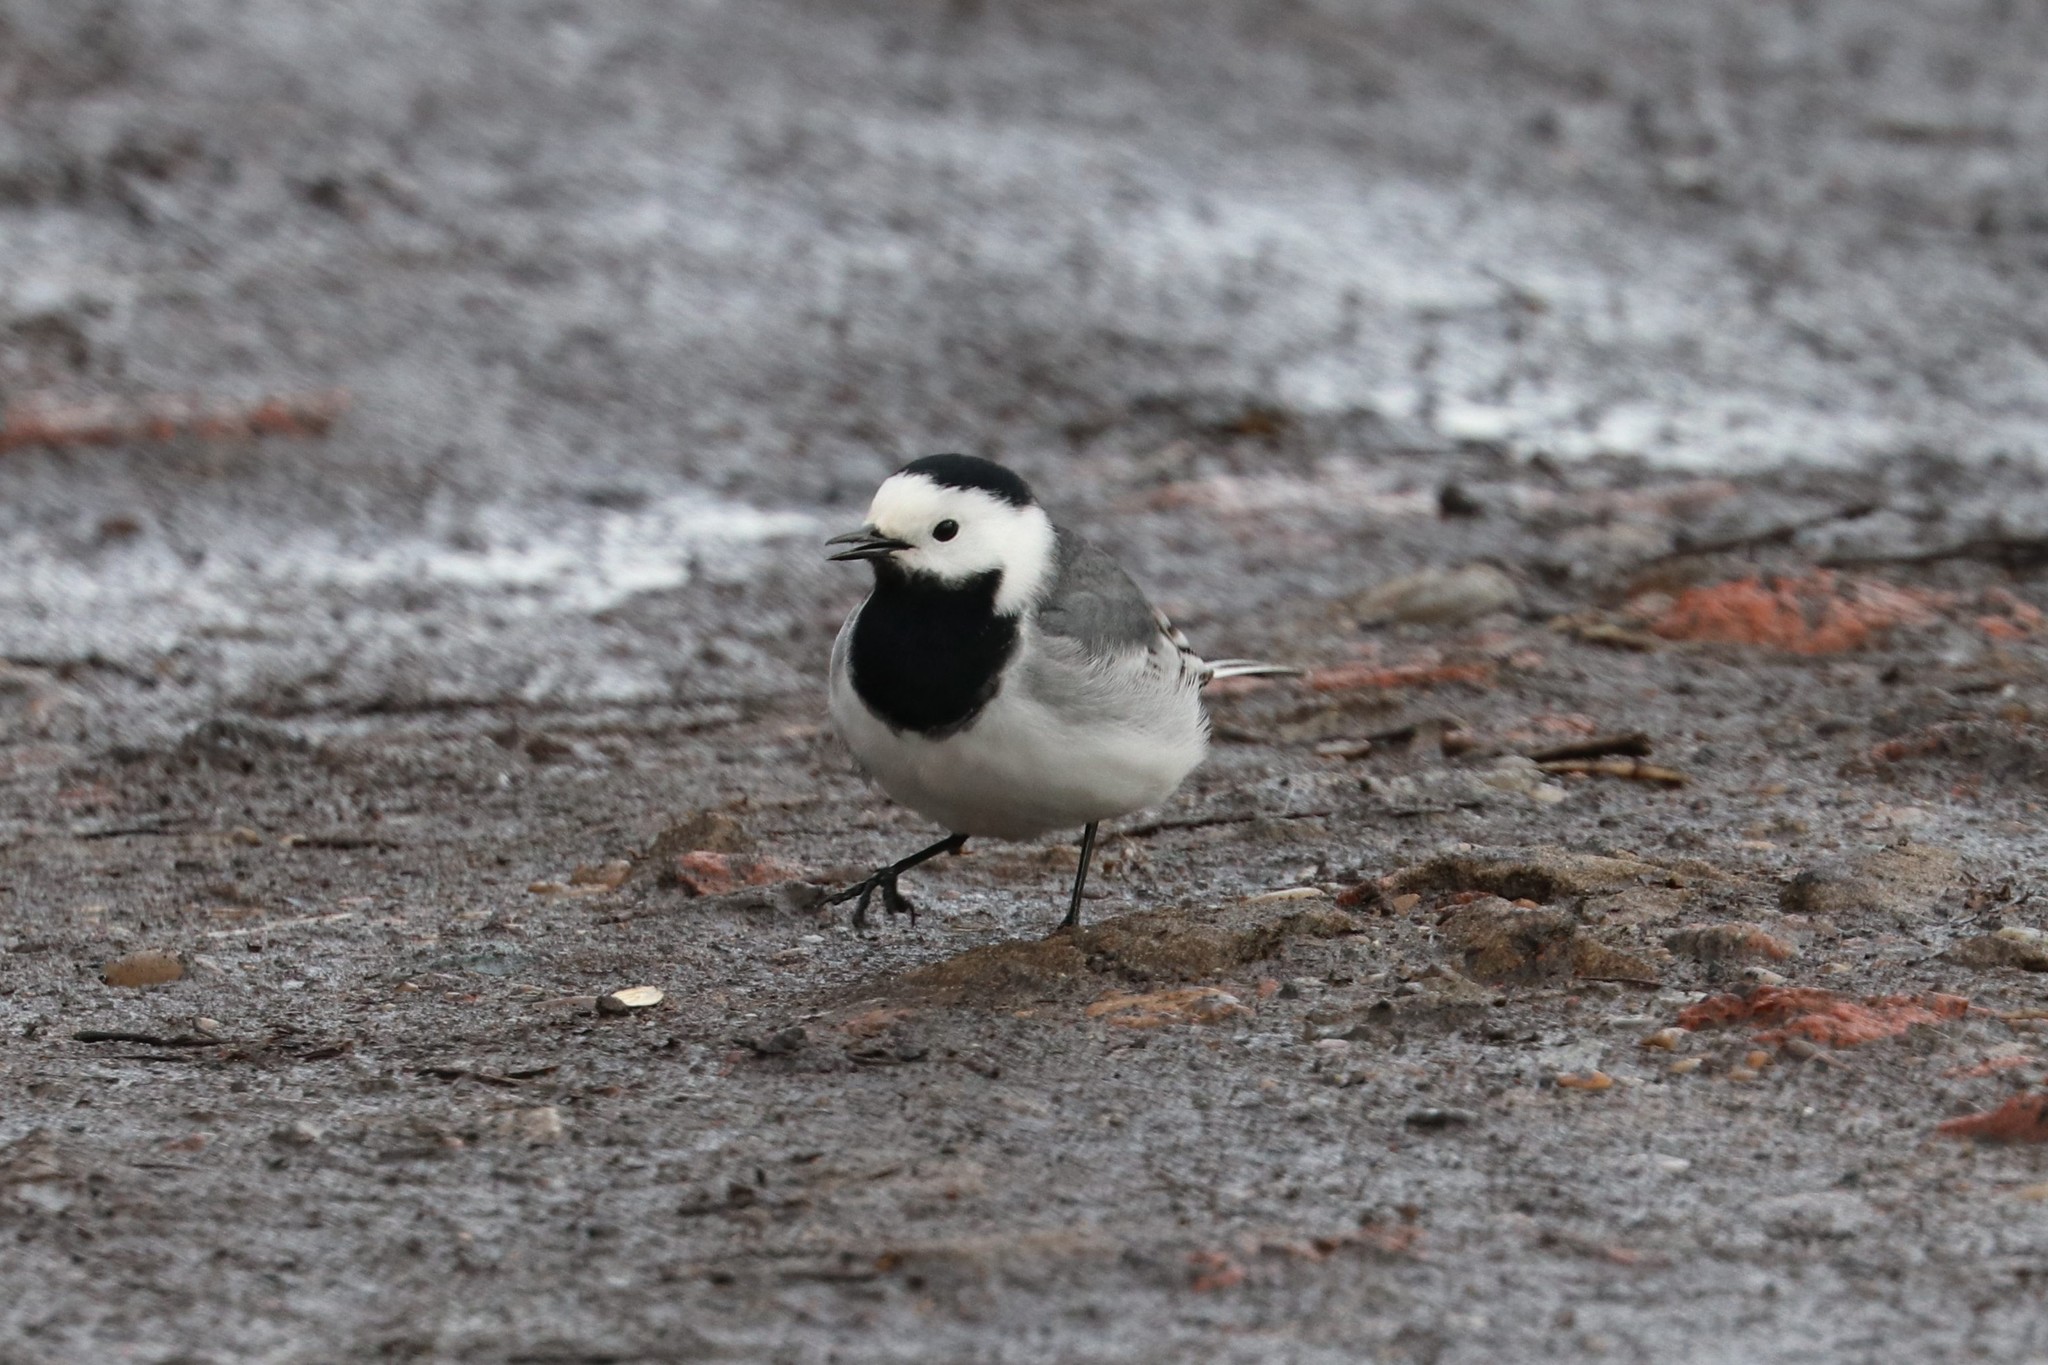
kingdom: Animalia
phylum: Chordata
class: Aves
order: Passeriformes
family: Motacillidae
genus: Motacilla
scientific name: Motacilla alba
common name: White wagtail
